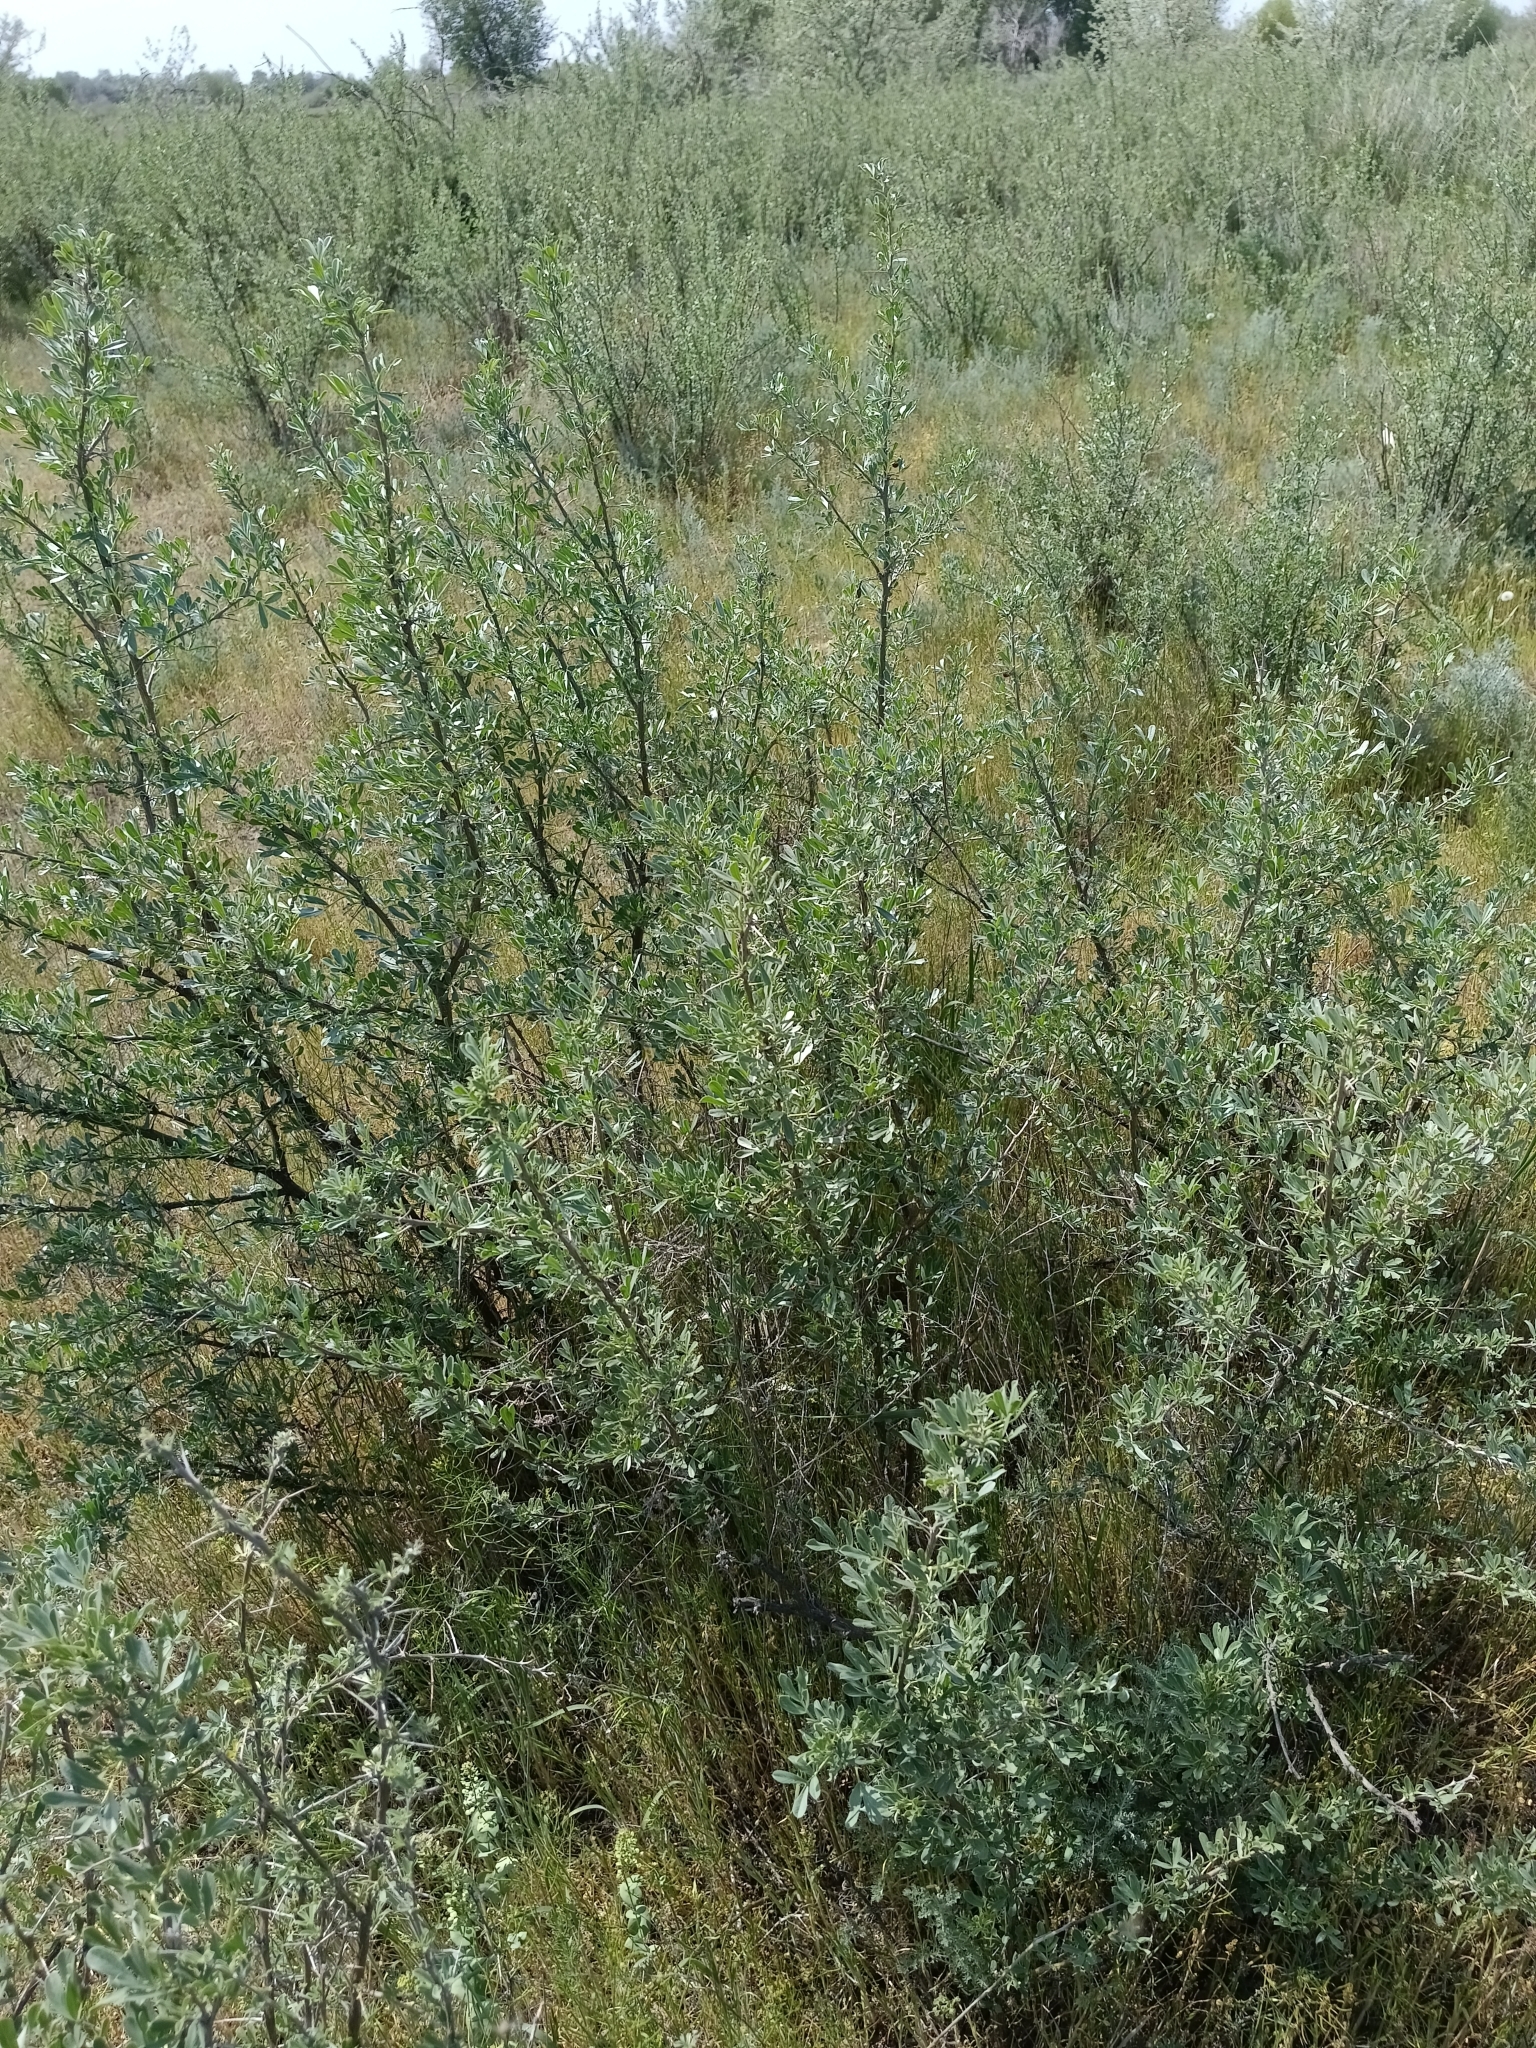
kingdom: Plantae
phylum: Tracheophyta
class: Magnoliopsida
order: Fabales
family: Fabaceae
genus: Caragana
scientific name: Caragana halodendron
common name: Siberian salt-tree
